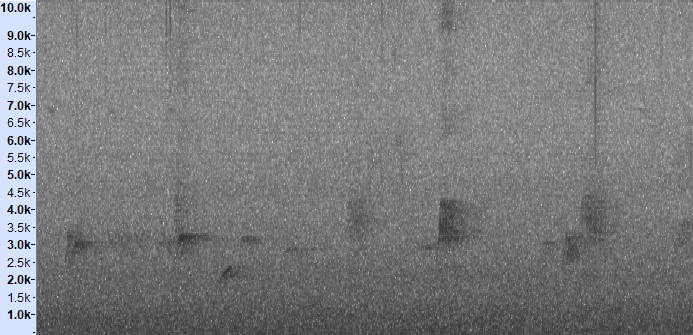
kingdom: Animalia
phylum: Chordata
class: Aves
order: Passeriformes
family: Pycnonotidae
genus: Hemixos
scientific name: Hemixos castanonotus
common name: Chestnut bulbul
